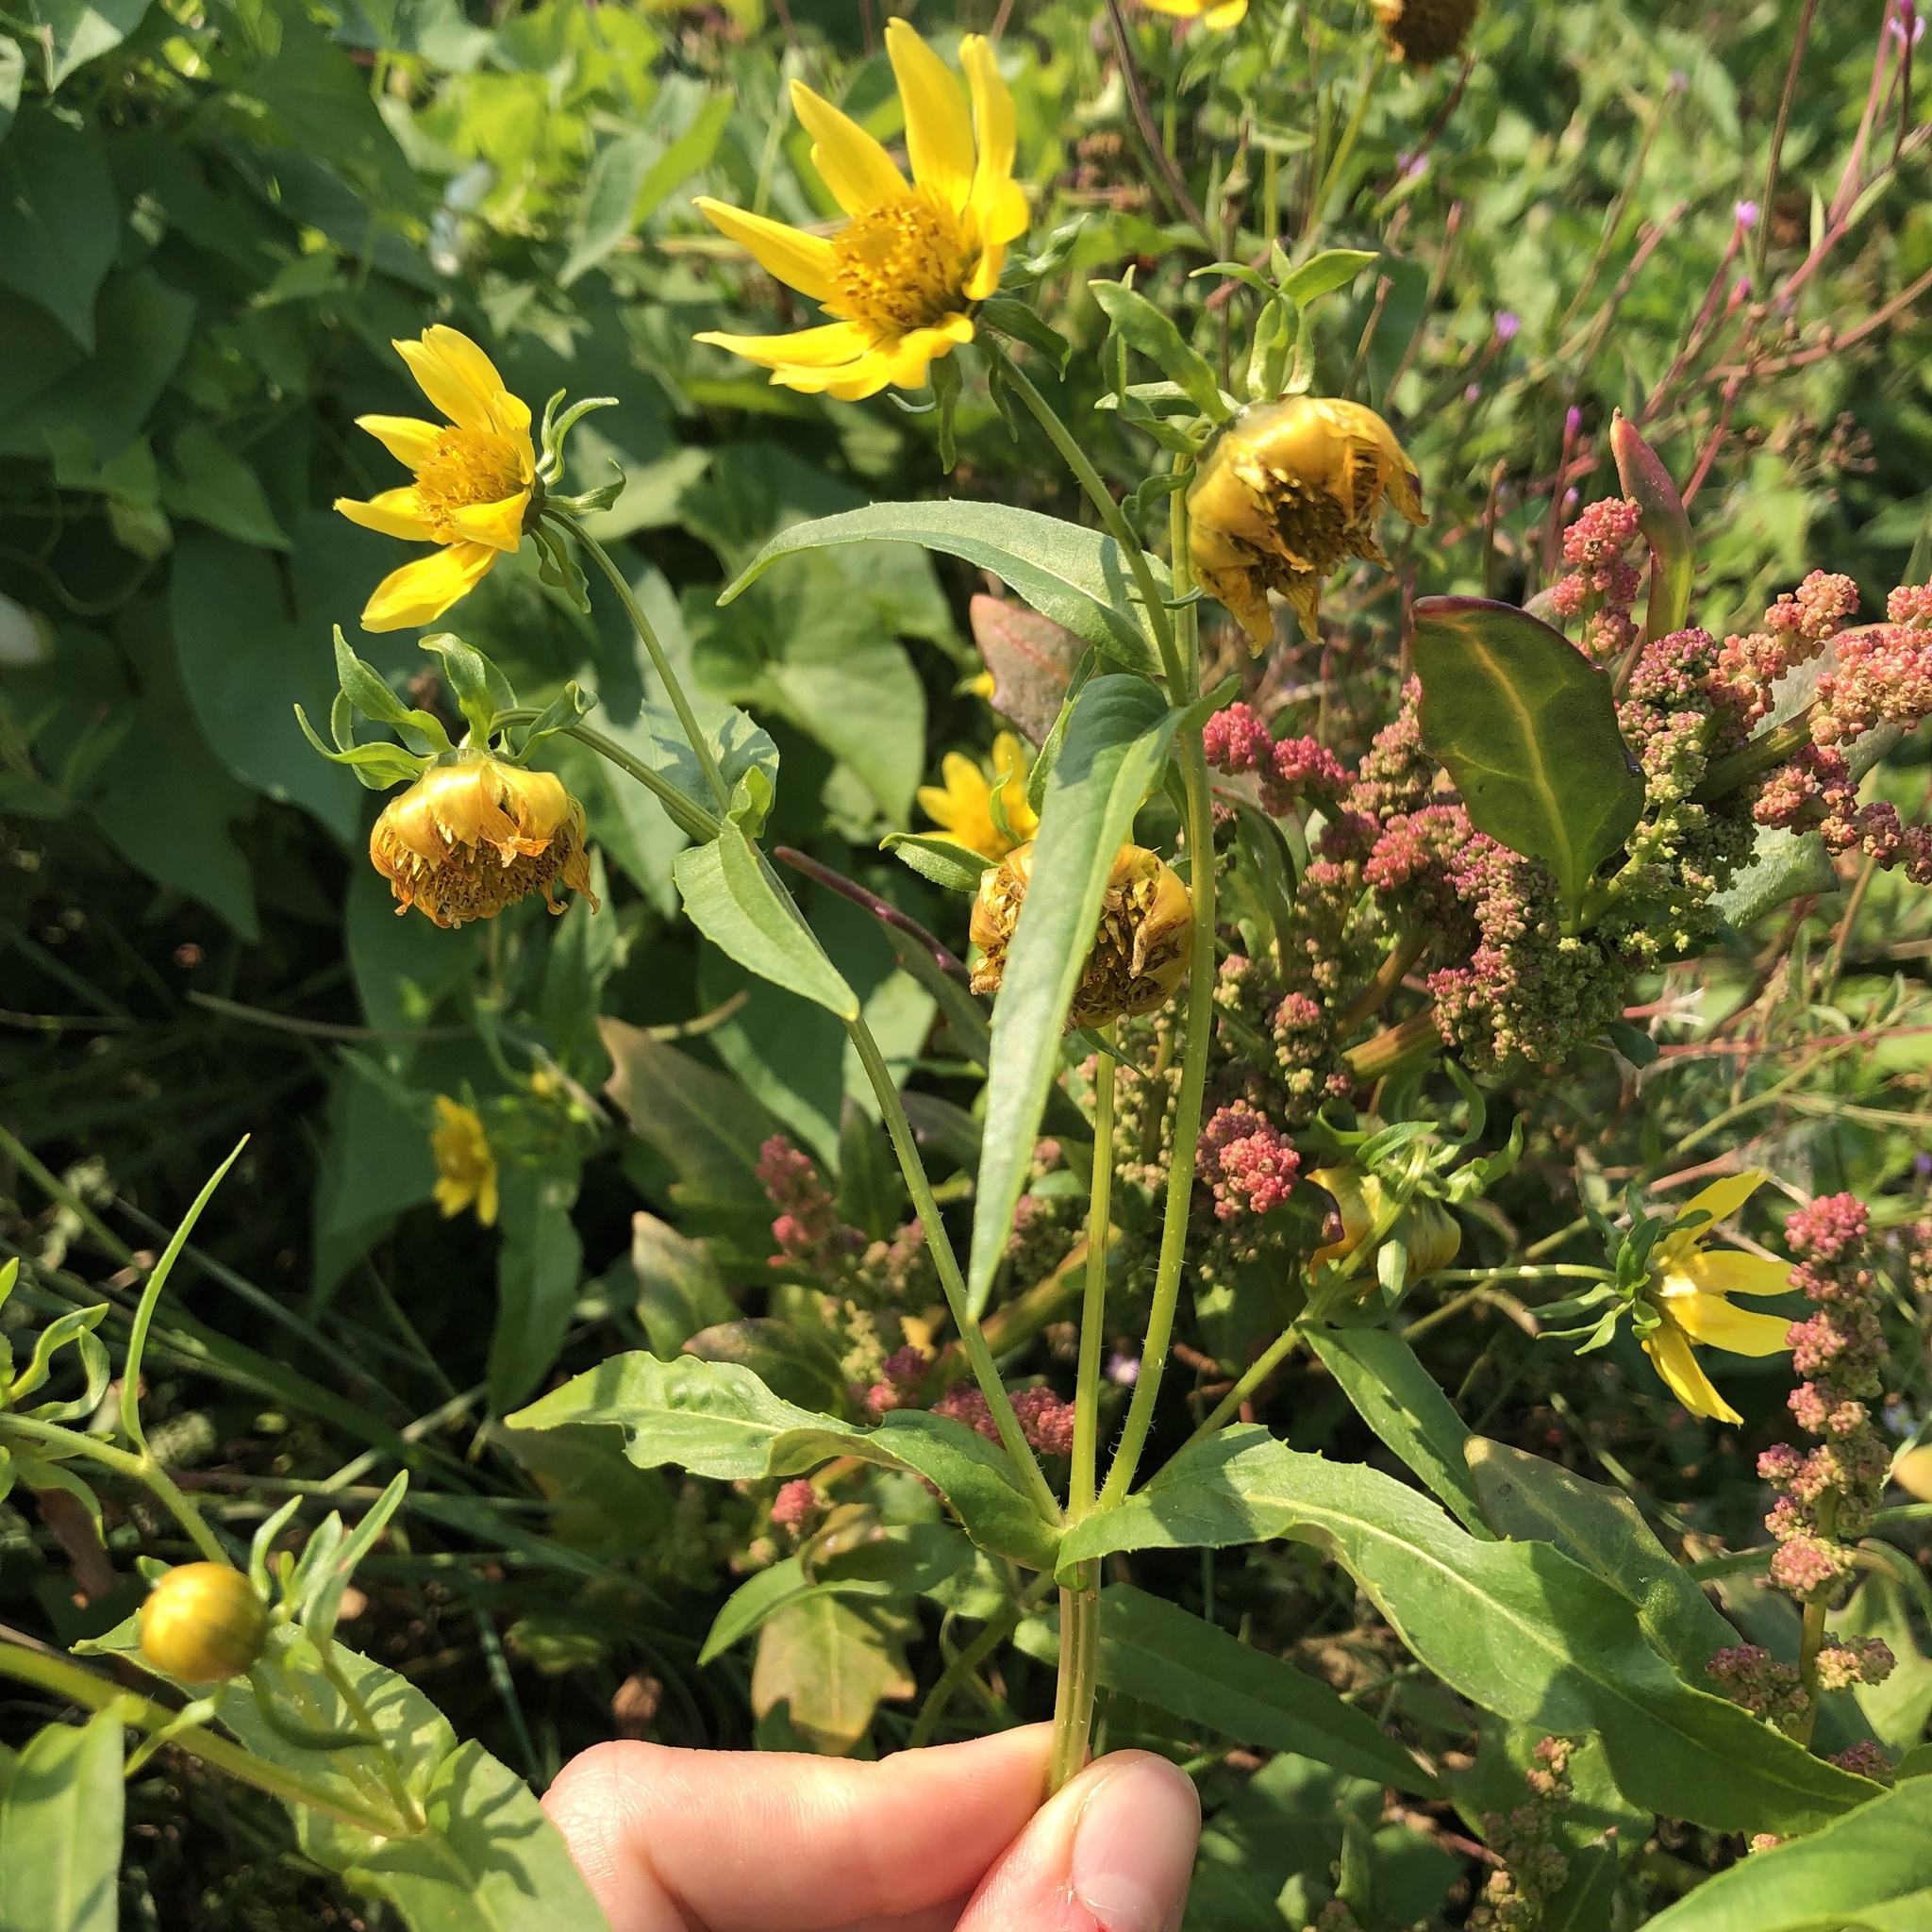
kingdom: Plantae
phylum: Tracheophyta
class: Magnoliopsida
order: Asterales
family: Asteraceae
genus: Bidens
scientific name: Bidens cernua
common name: Nodding bur-marigold
